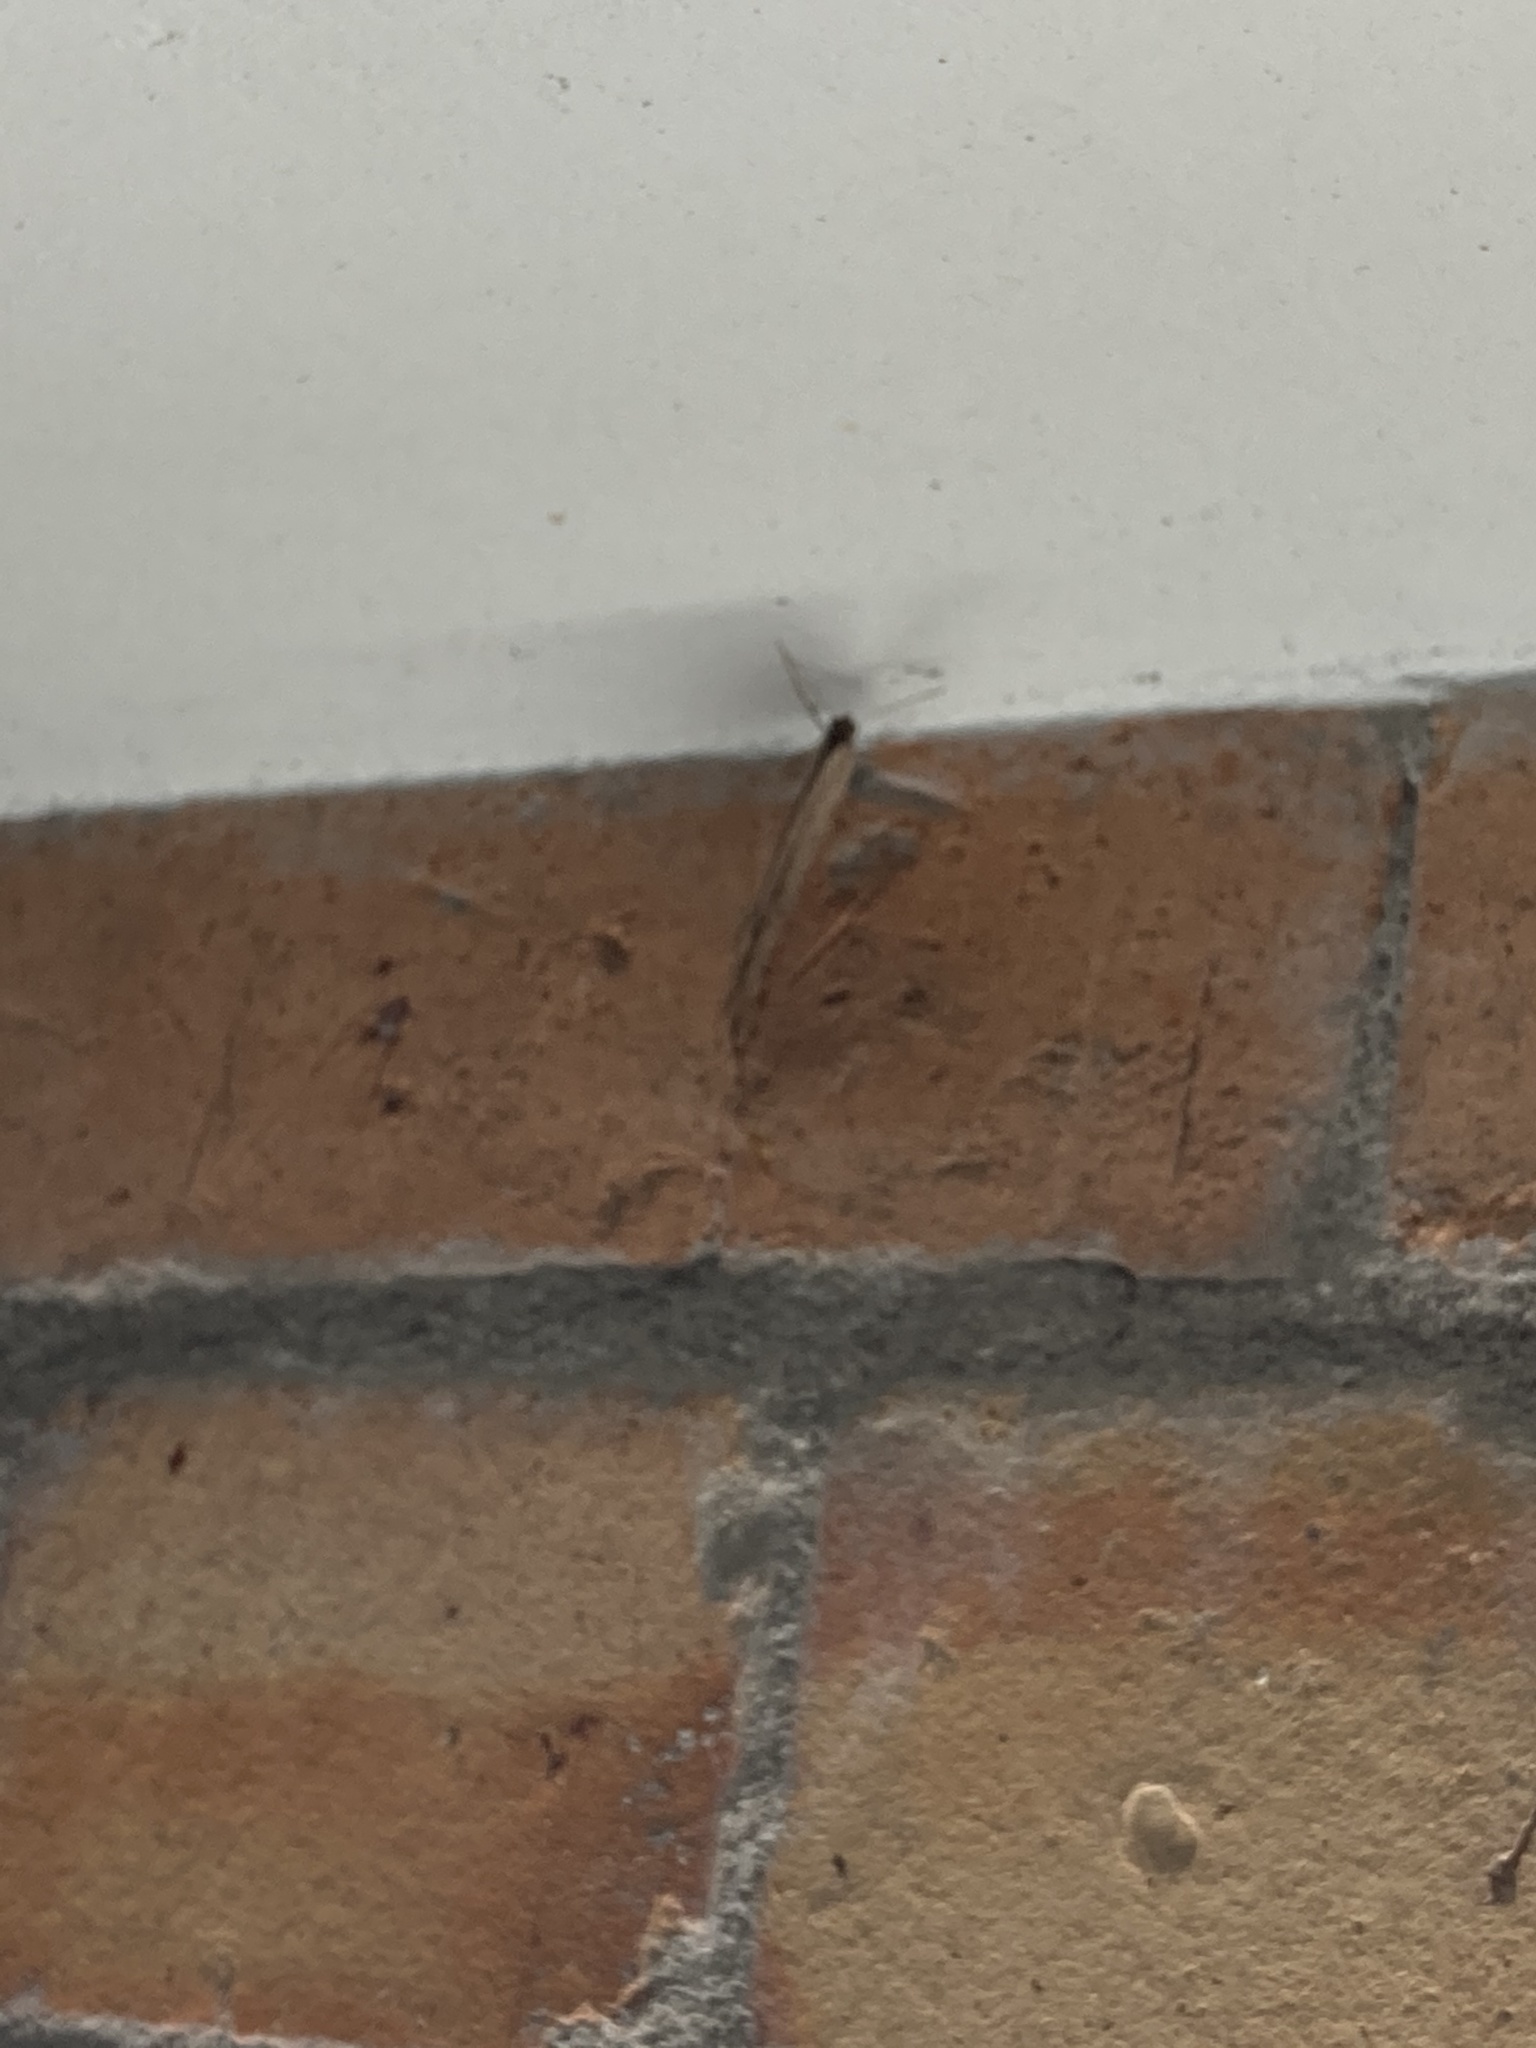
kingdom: Animalia
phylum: Arthropoda
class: Insecta
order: Lepidoptera
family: Nymphalidae
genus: Melanitis
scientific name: Melanitis leda
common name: Twilight brown
